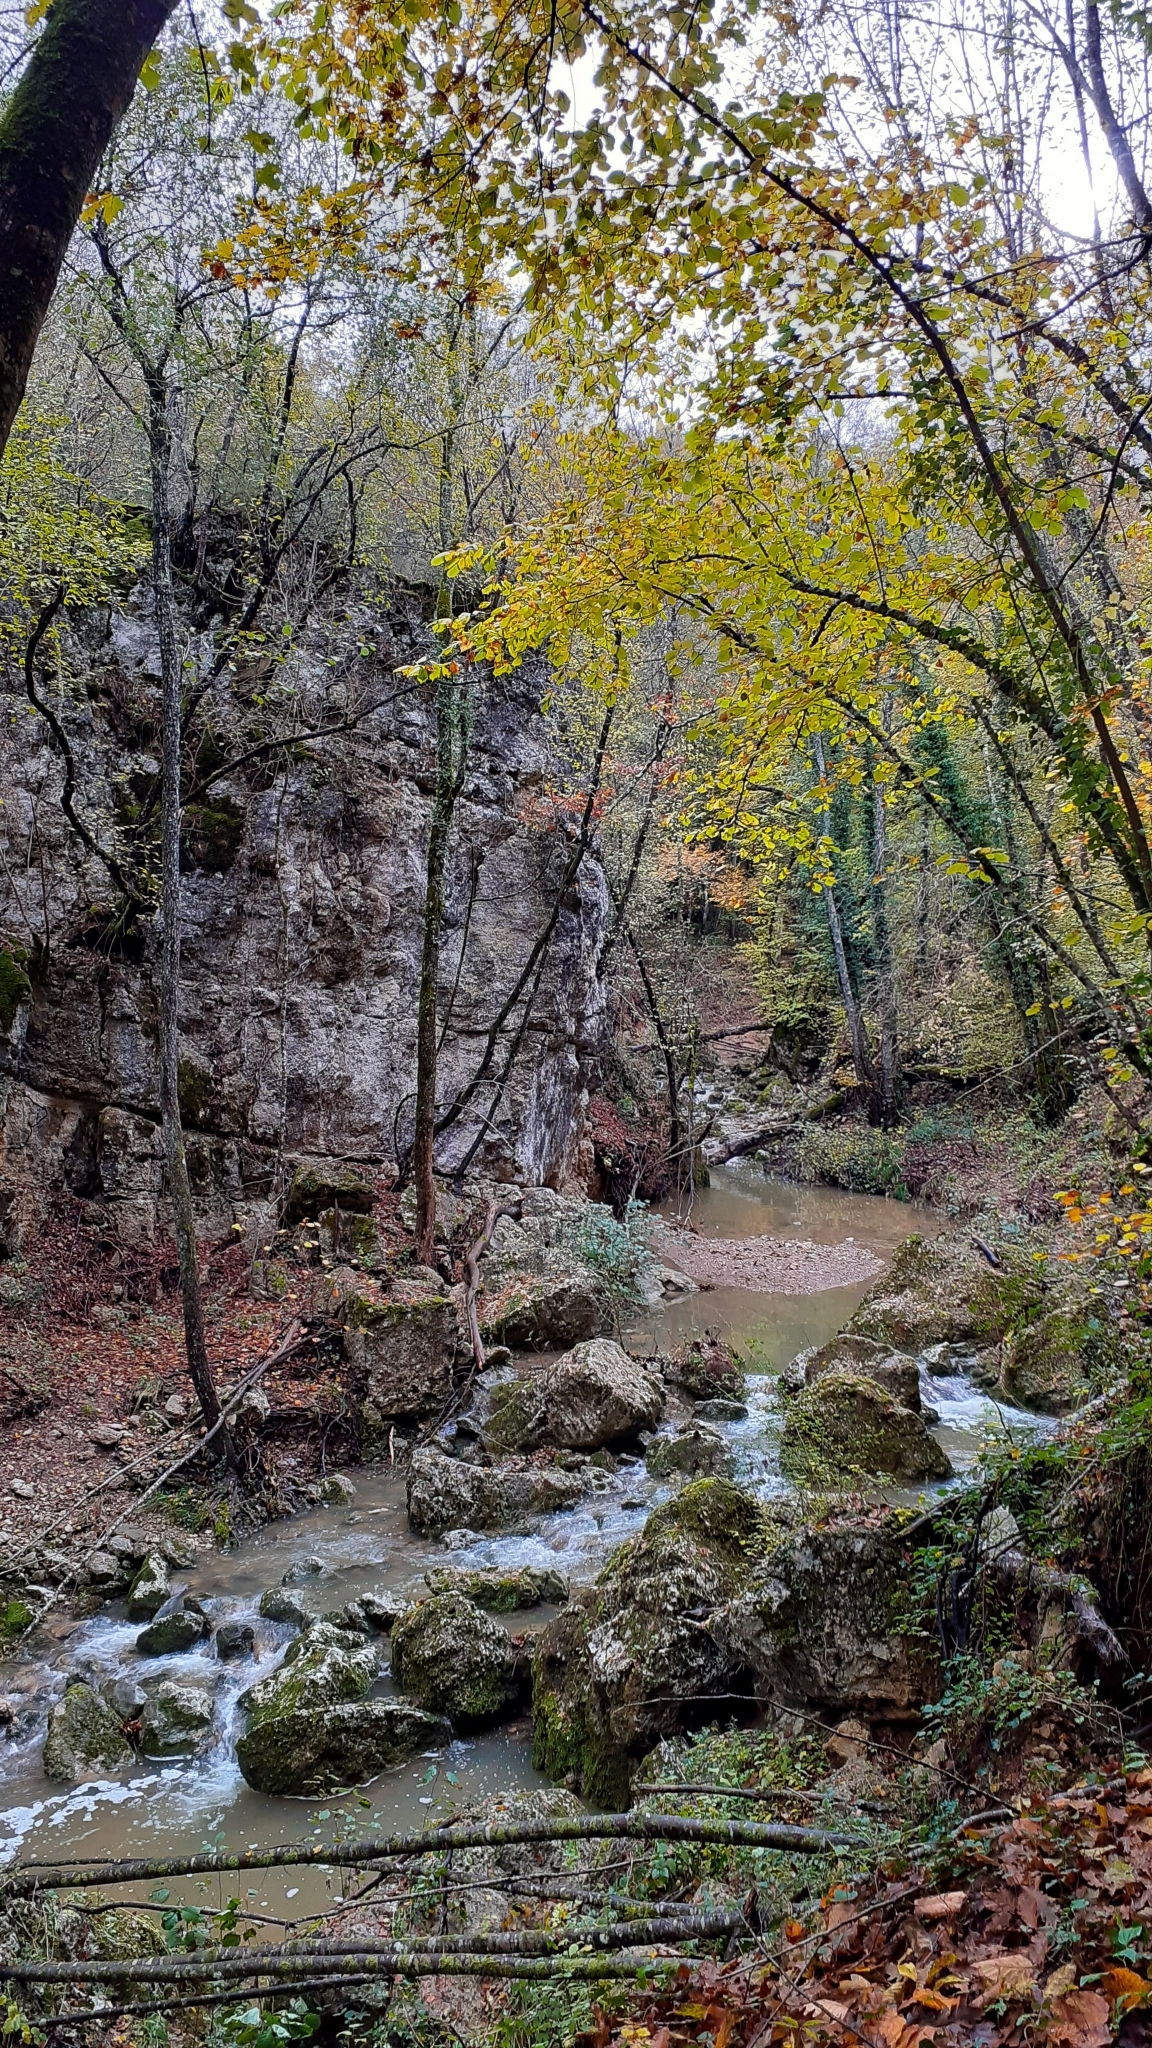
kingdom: Animalia
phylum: Chordata
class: Amphibia
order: Anura
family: Ranidae
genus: Rana
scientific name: Rana italica
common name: Italian stream frog
